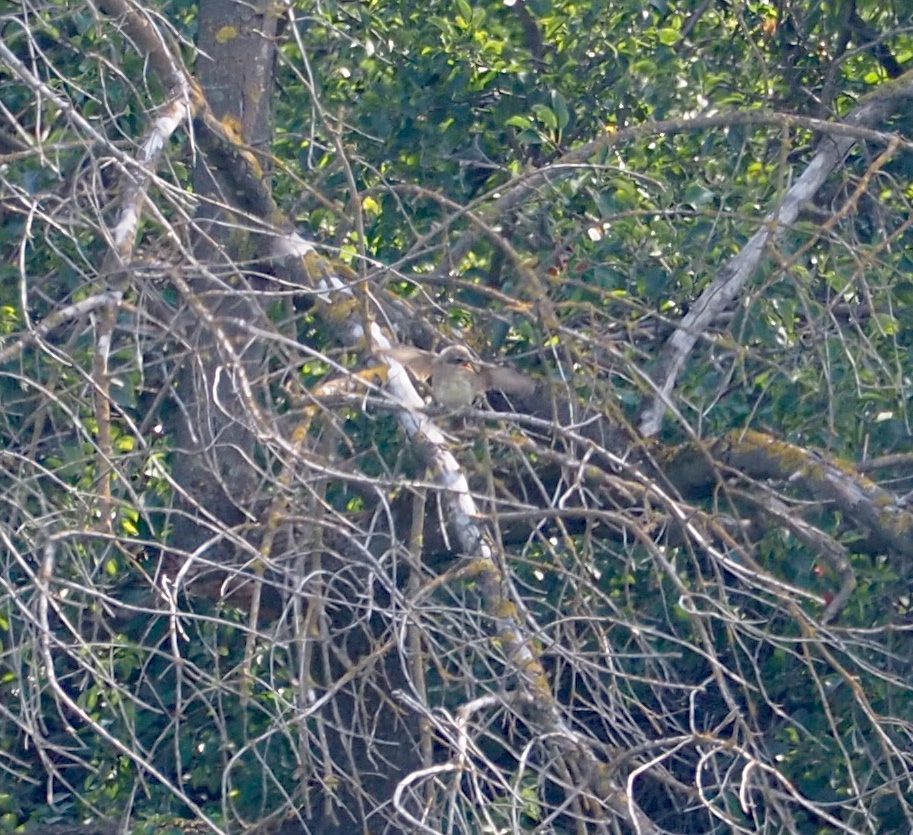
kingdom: Animalia
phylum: Chordata
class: Aves
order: Passeriformes
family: Laniidae
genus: Lanius
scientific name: Lanius collurio
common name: Red-backed shrike
